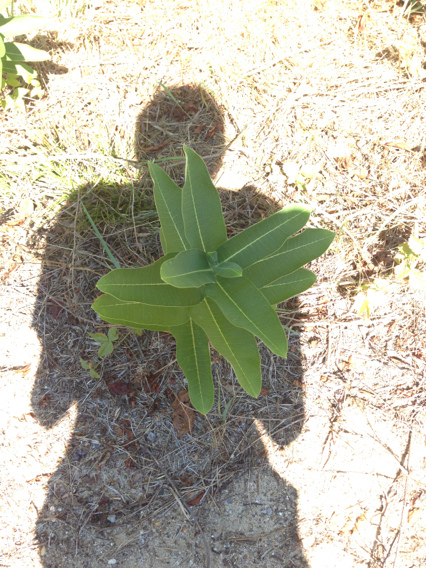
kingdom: Plantae
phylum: Tracheophyta
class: Magnoliopsida
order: Gentianales
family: Apocynaceae
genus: Asclepias
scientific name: Asclepias syriaca
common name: Common milkweed
